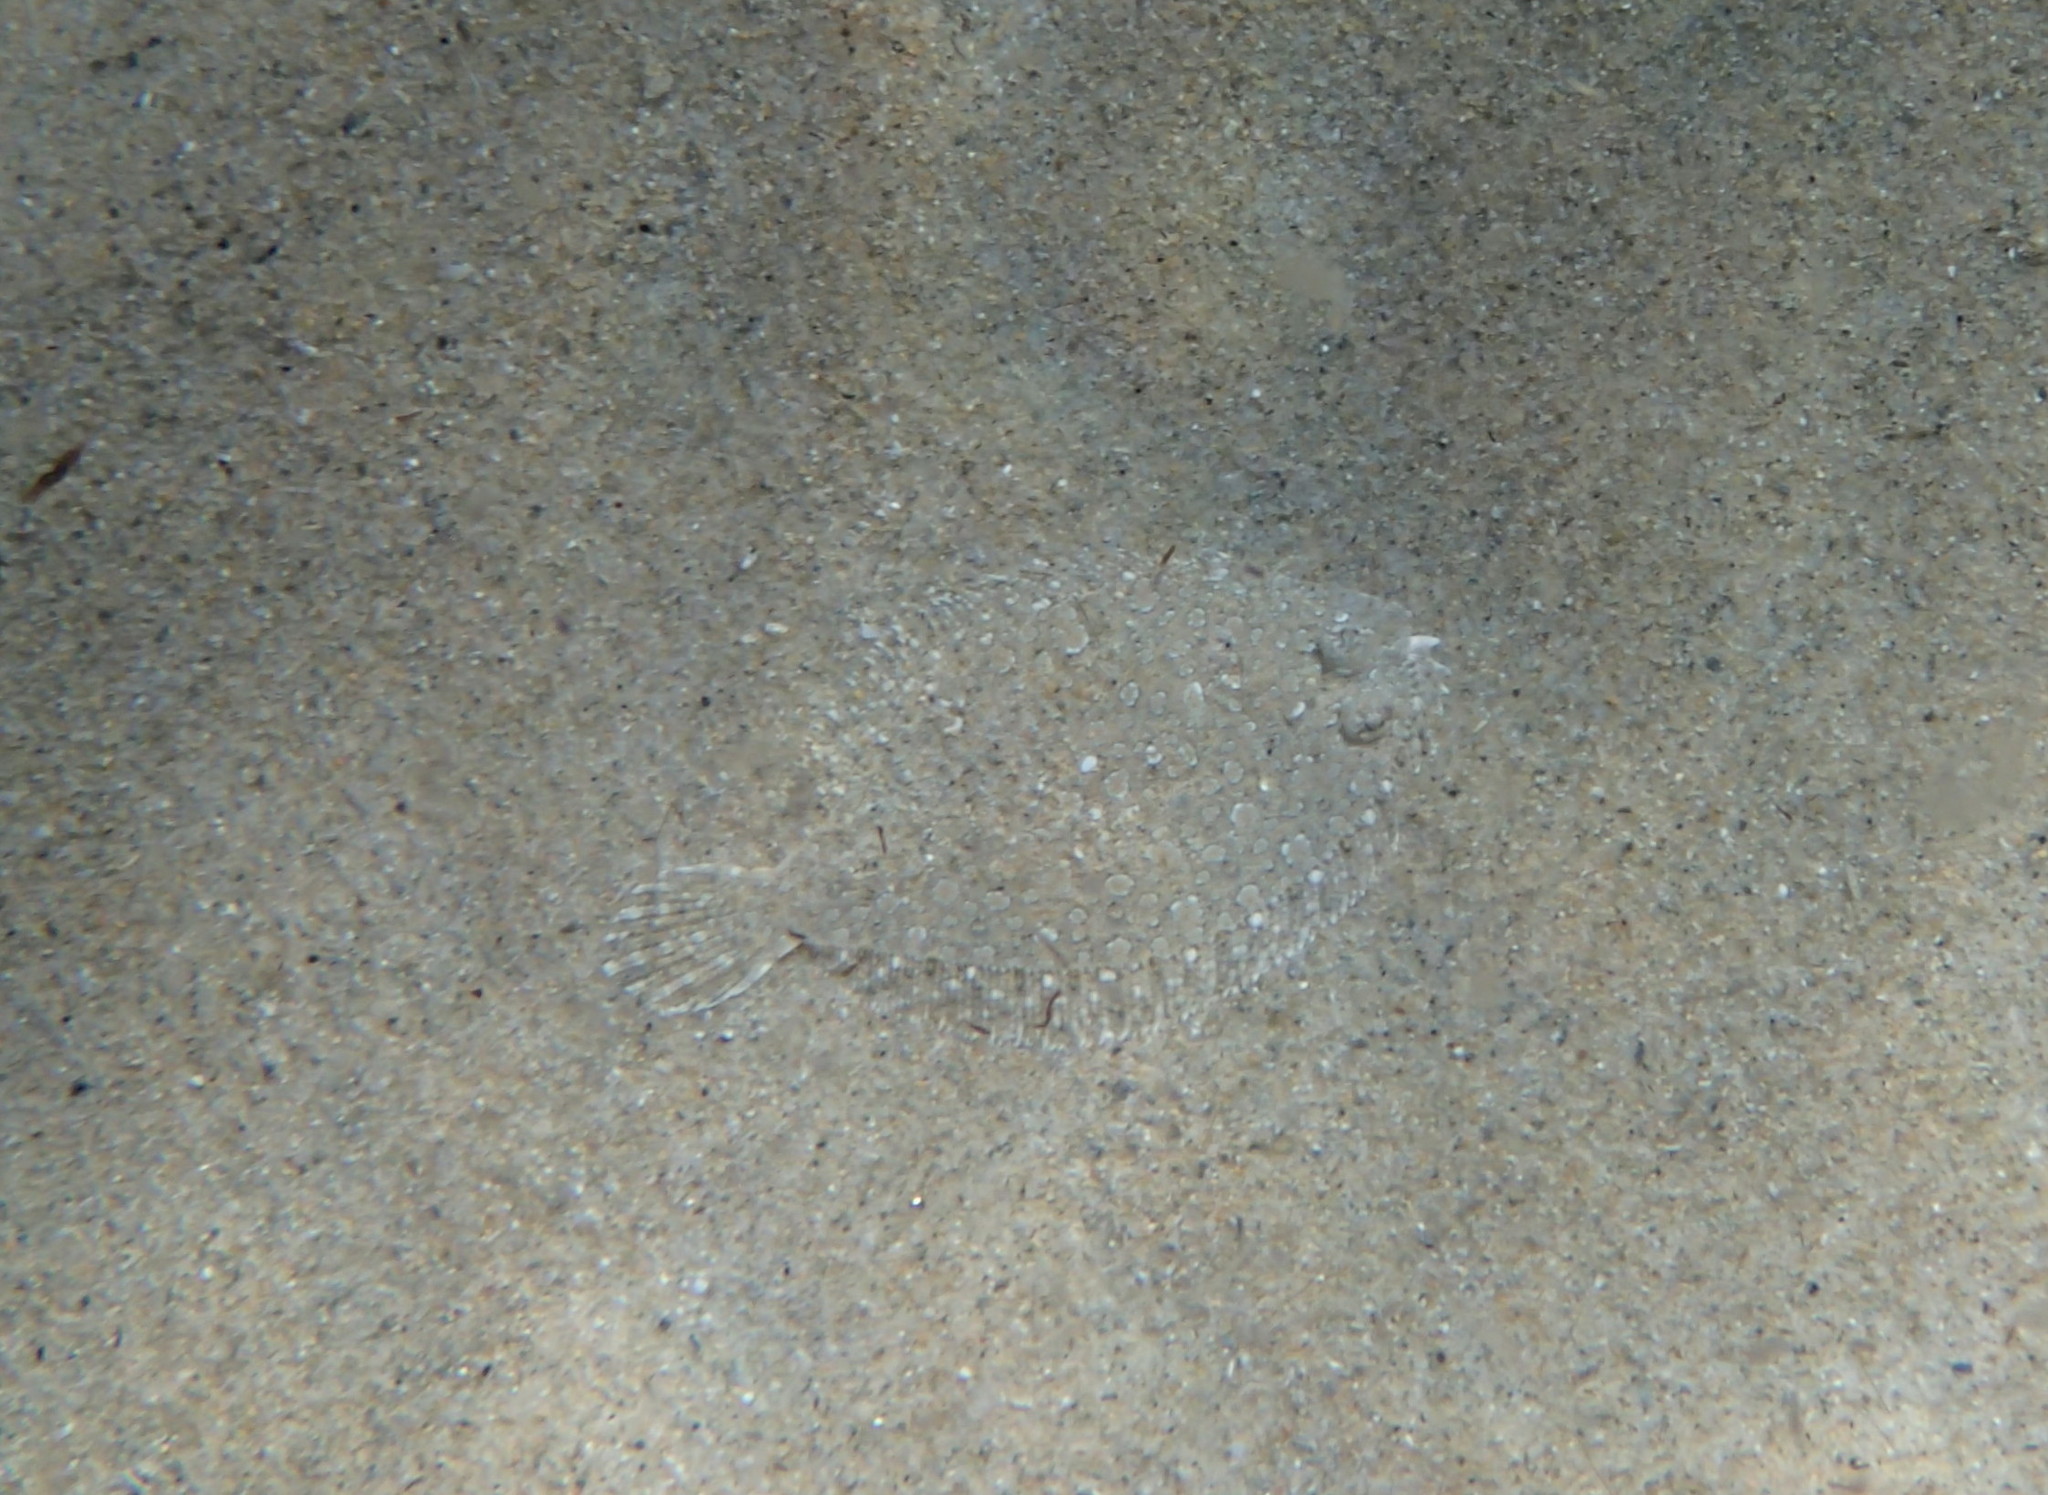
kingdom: Animalia
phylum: Chordata
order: Pleuronectiformes
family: Bothidae
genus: Bothus
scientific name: Bothus podas
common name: Wide-eyed flounder
